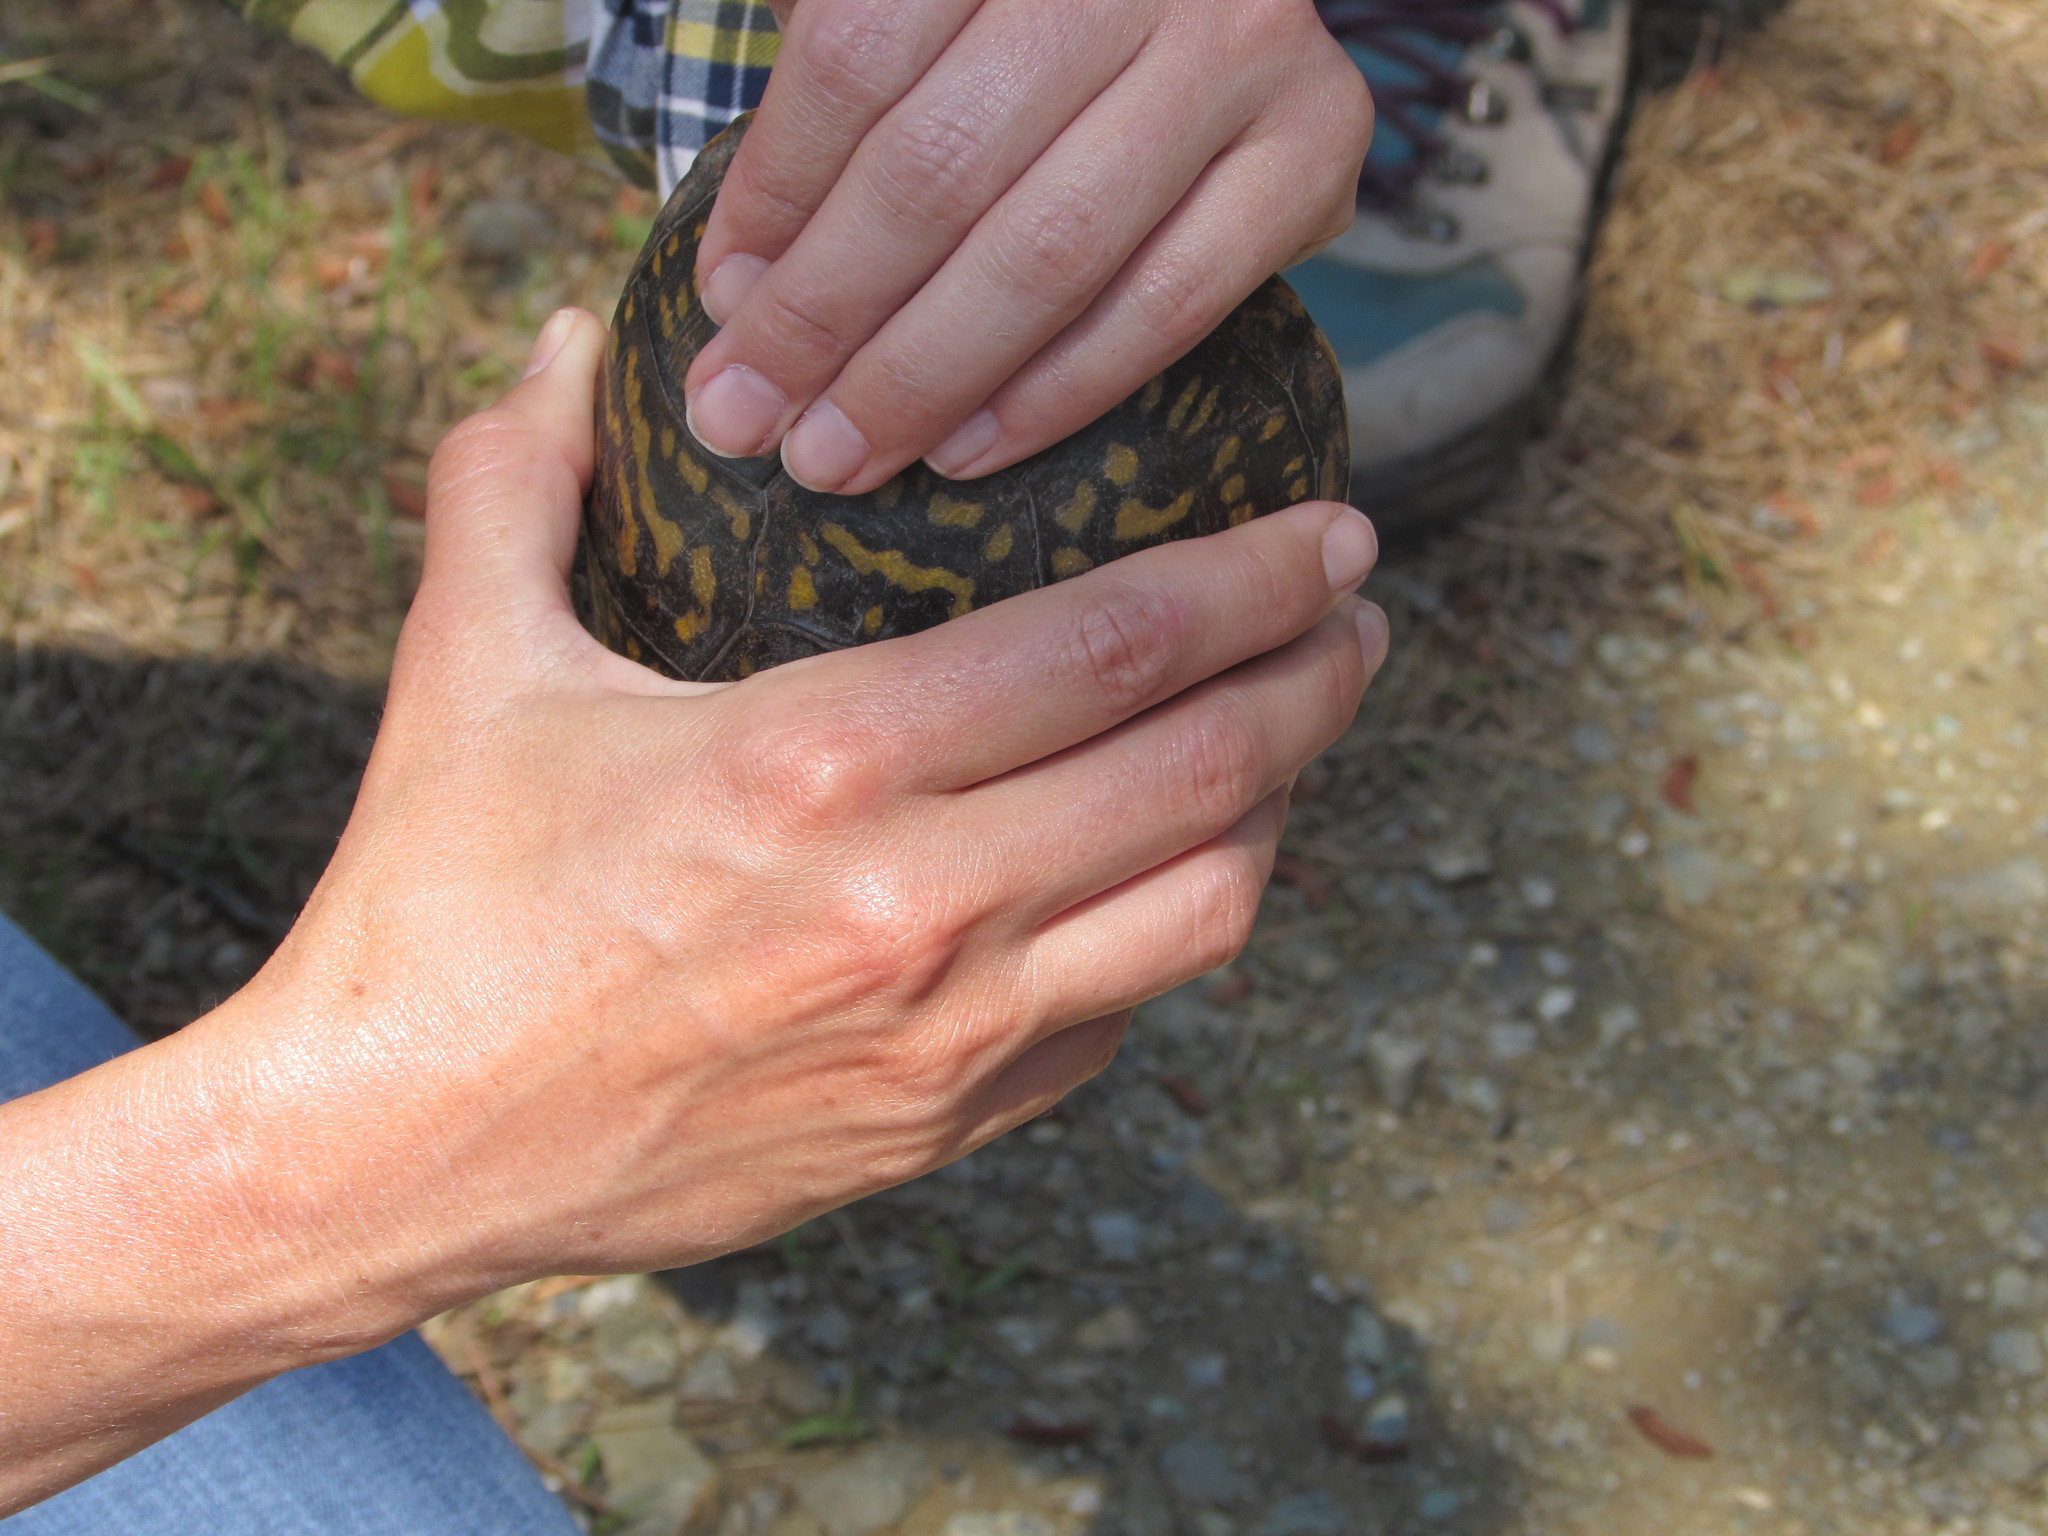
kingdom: Animalia
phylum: Chordata
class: Testudines
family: Emydidae
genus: Terrapene
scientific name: Terrapene carolina
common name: Common box turtle
